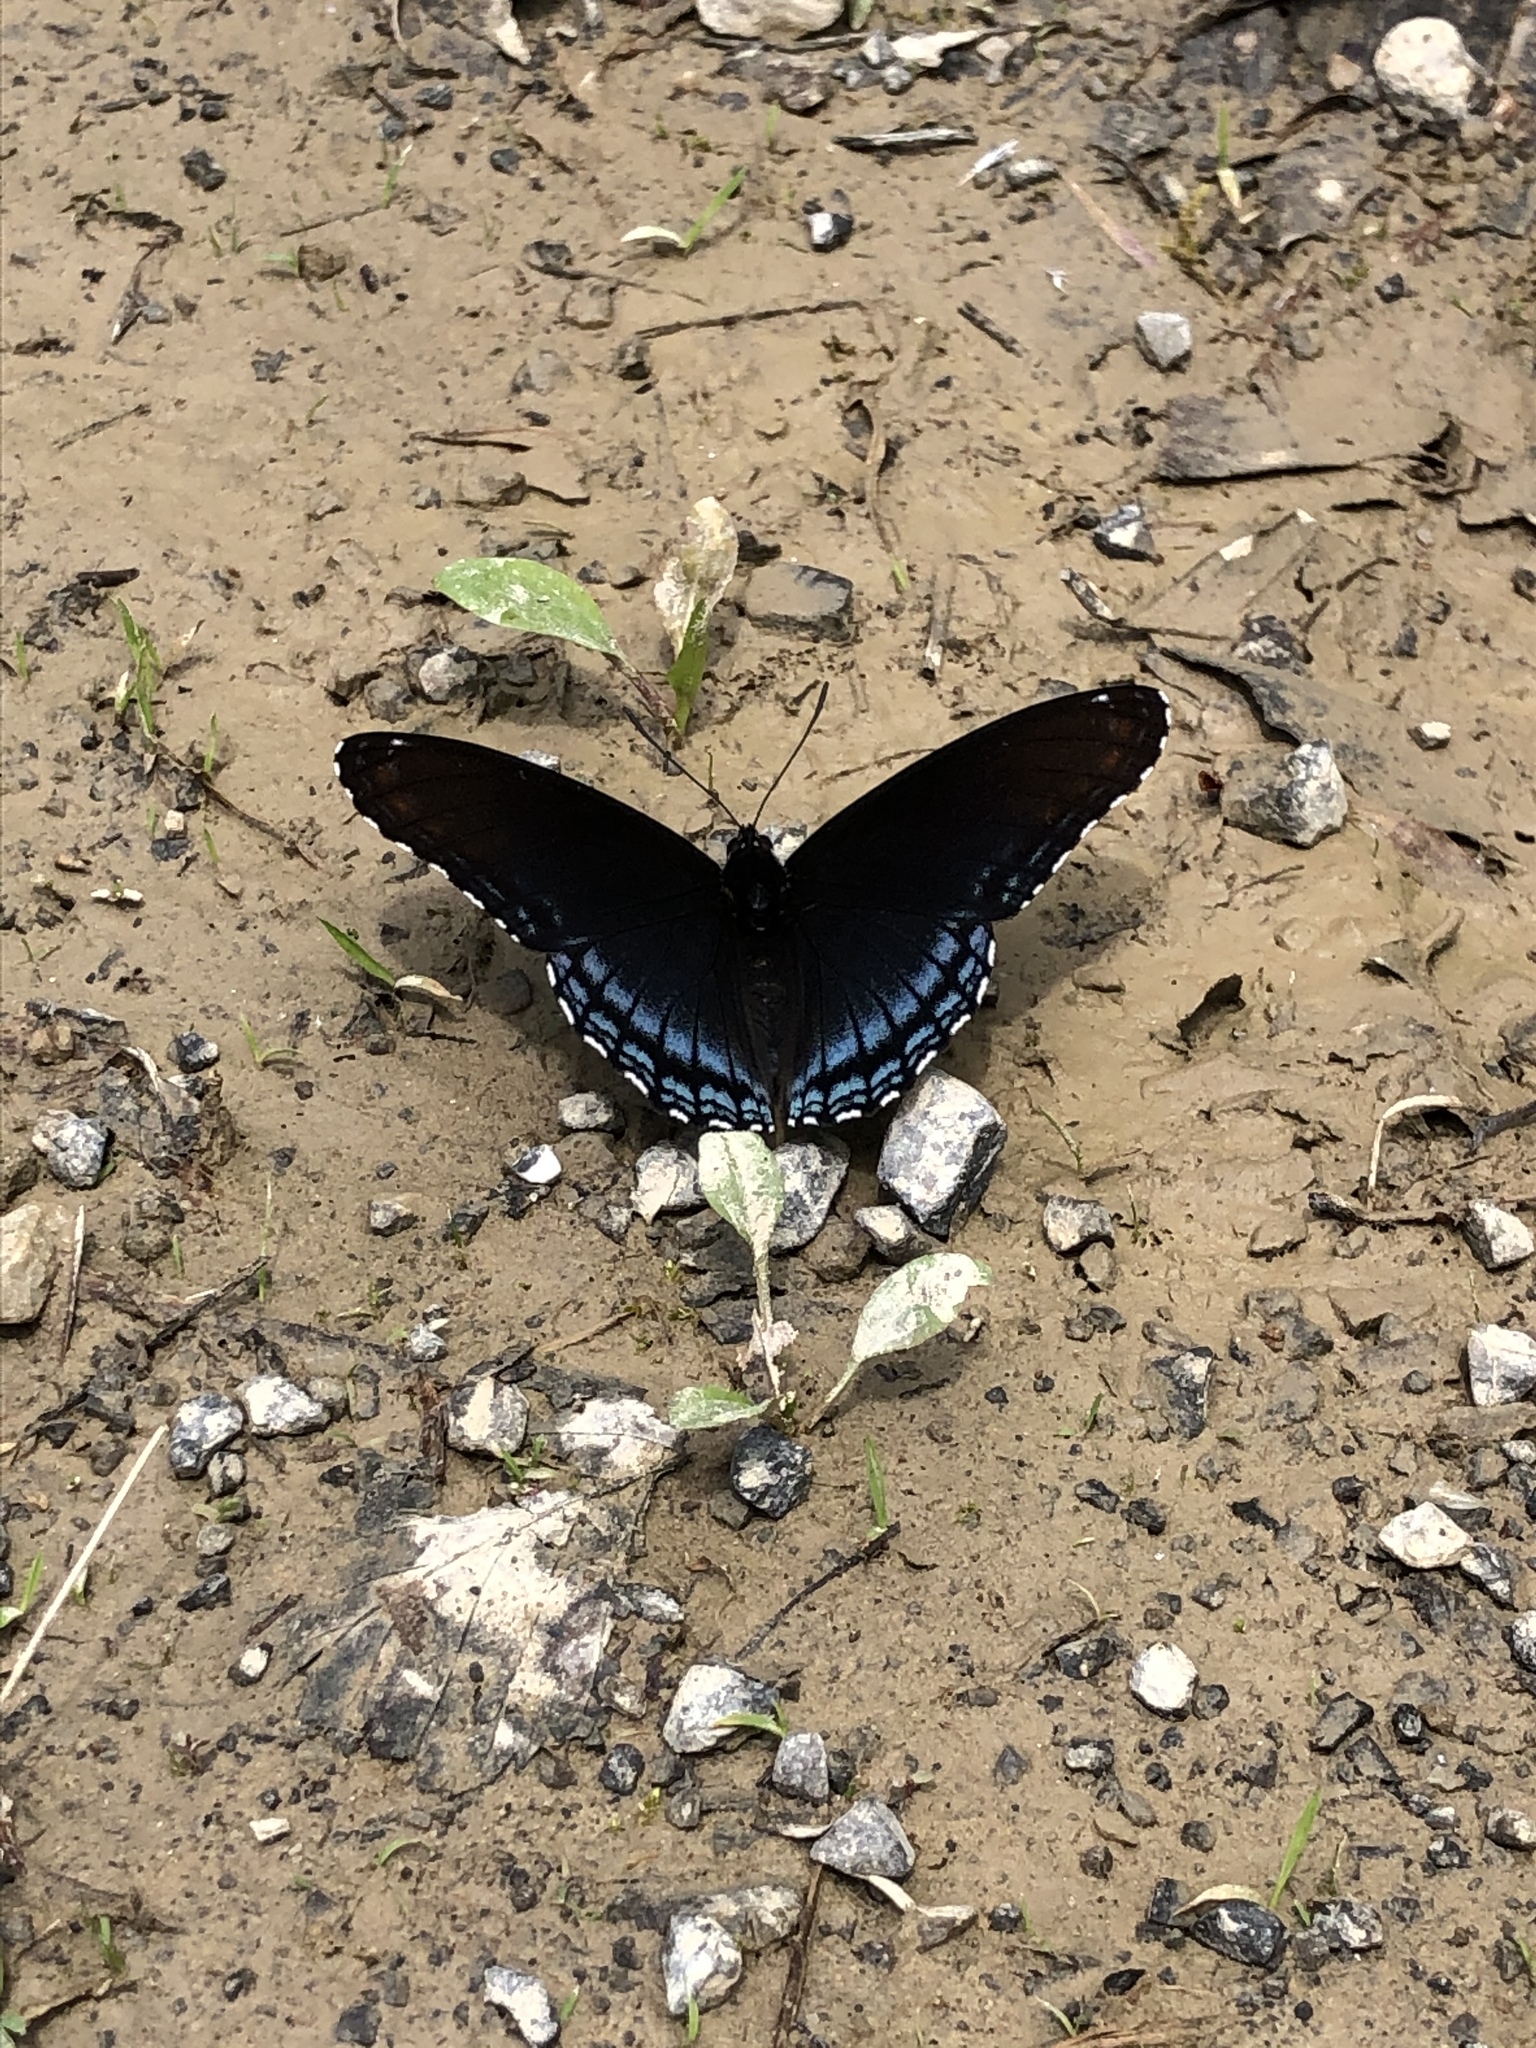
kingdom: Animalia
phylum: Arthropoda
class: Insecta
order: Lepidoptera
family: Nymphalidae
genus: Limenitis
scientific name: Limenitis astyanax
